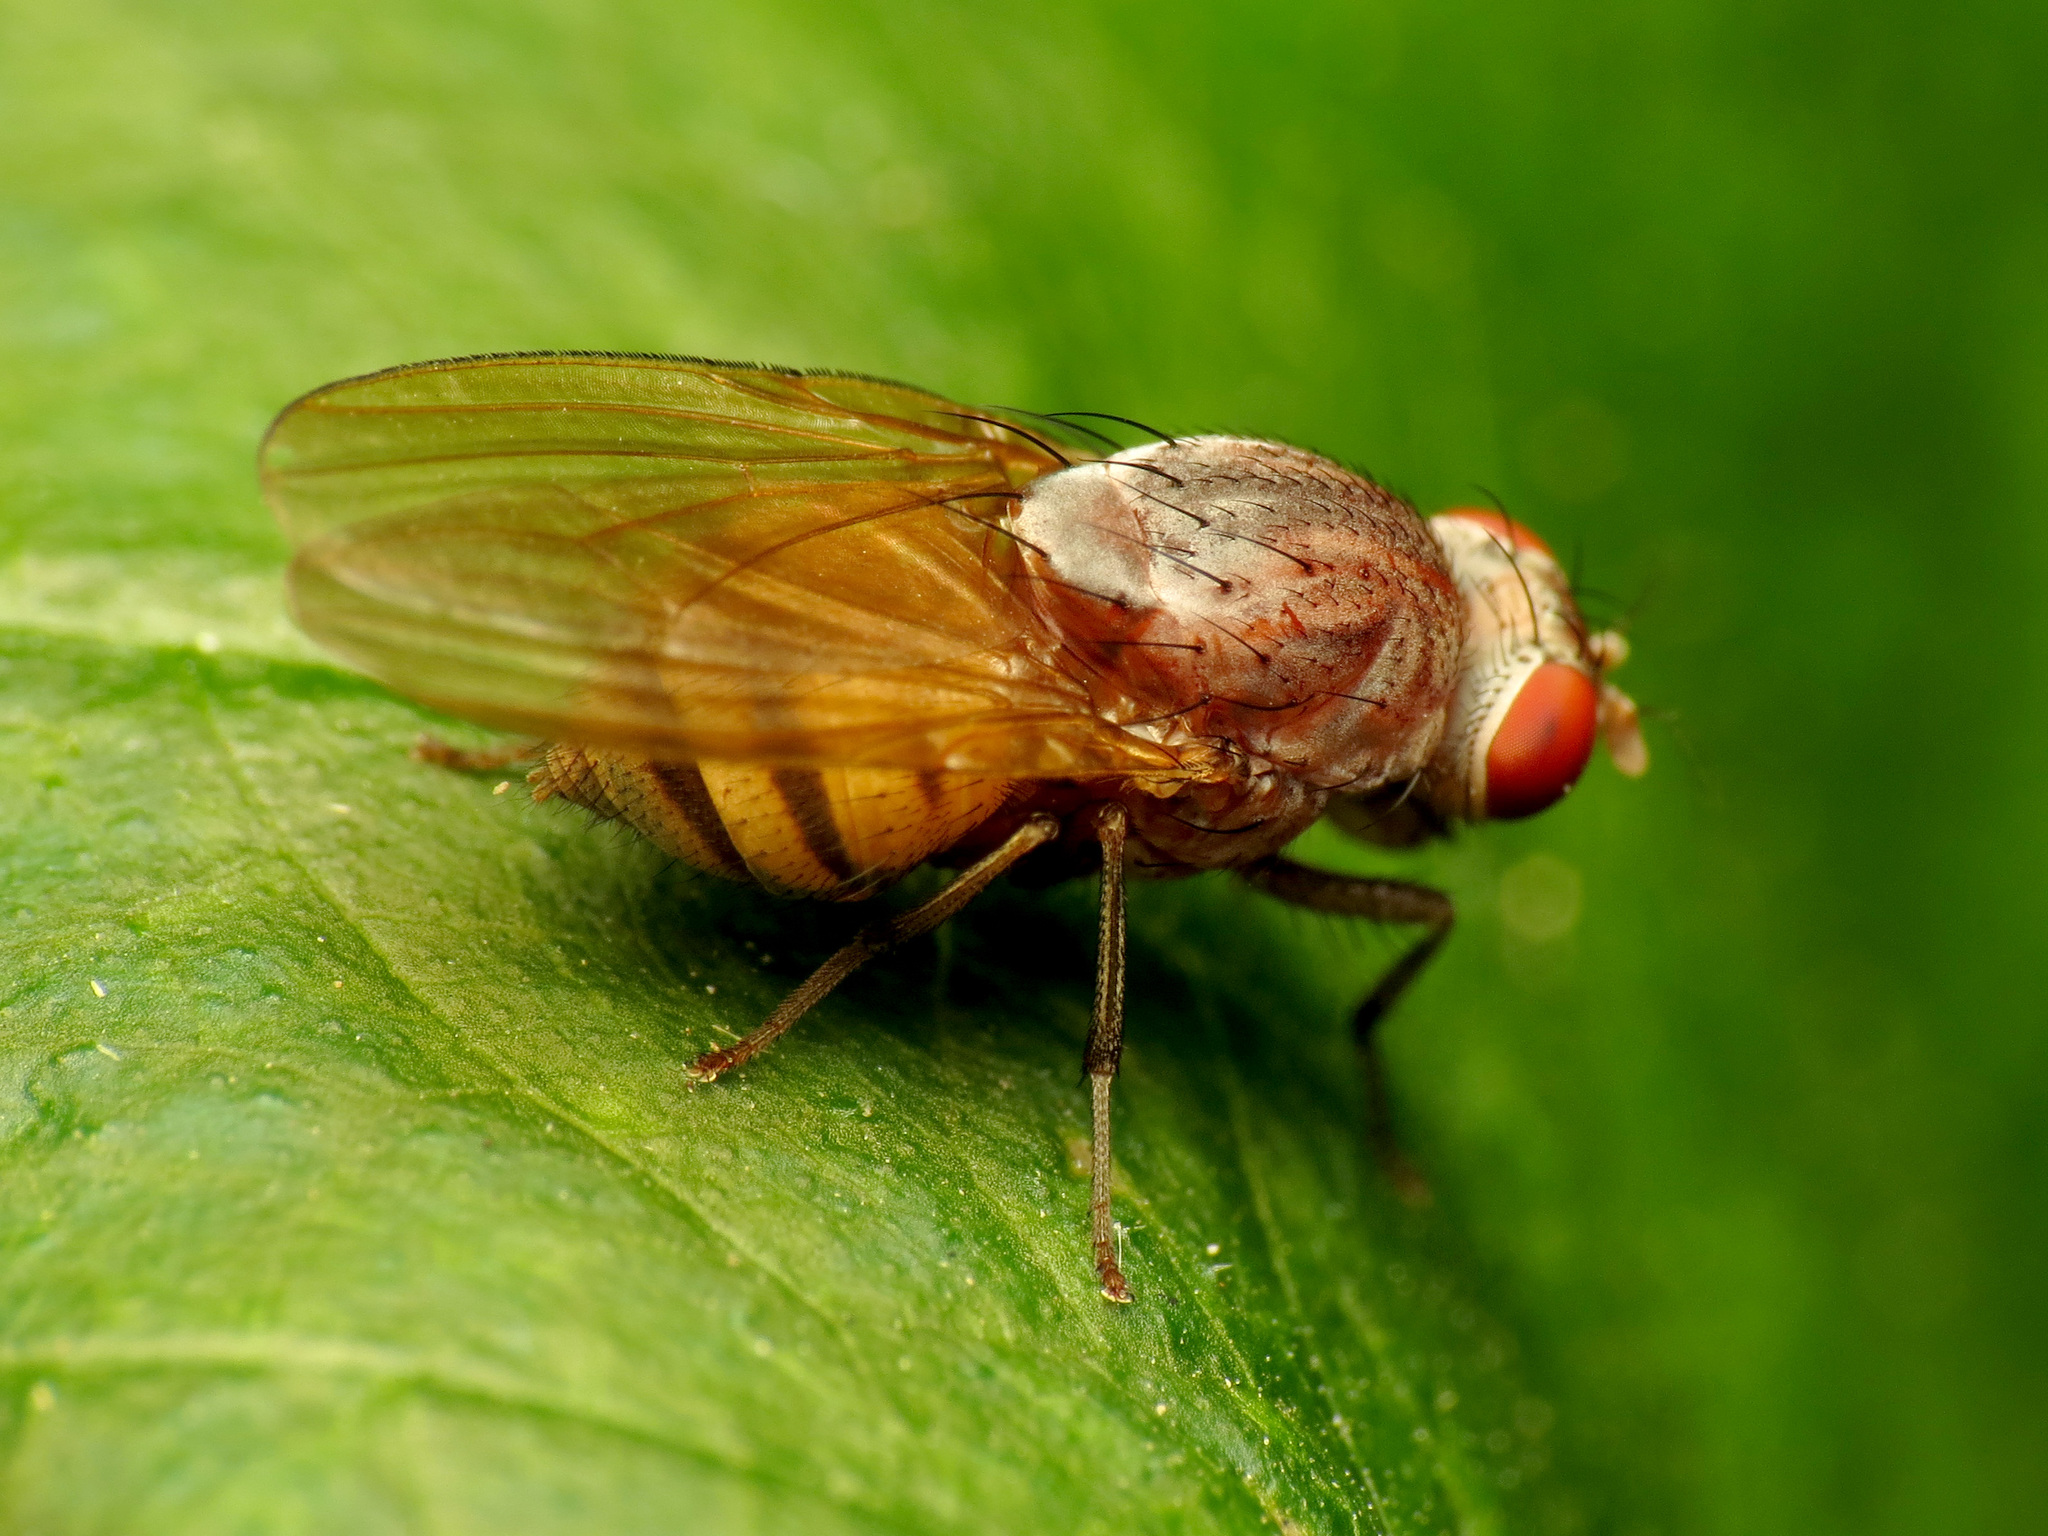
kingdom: Animalia
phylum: Arthropoda
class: Insecta
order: Diptera
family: Lauxaniidae
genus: Minettia
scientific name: Minettia magna
